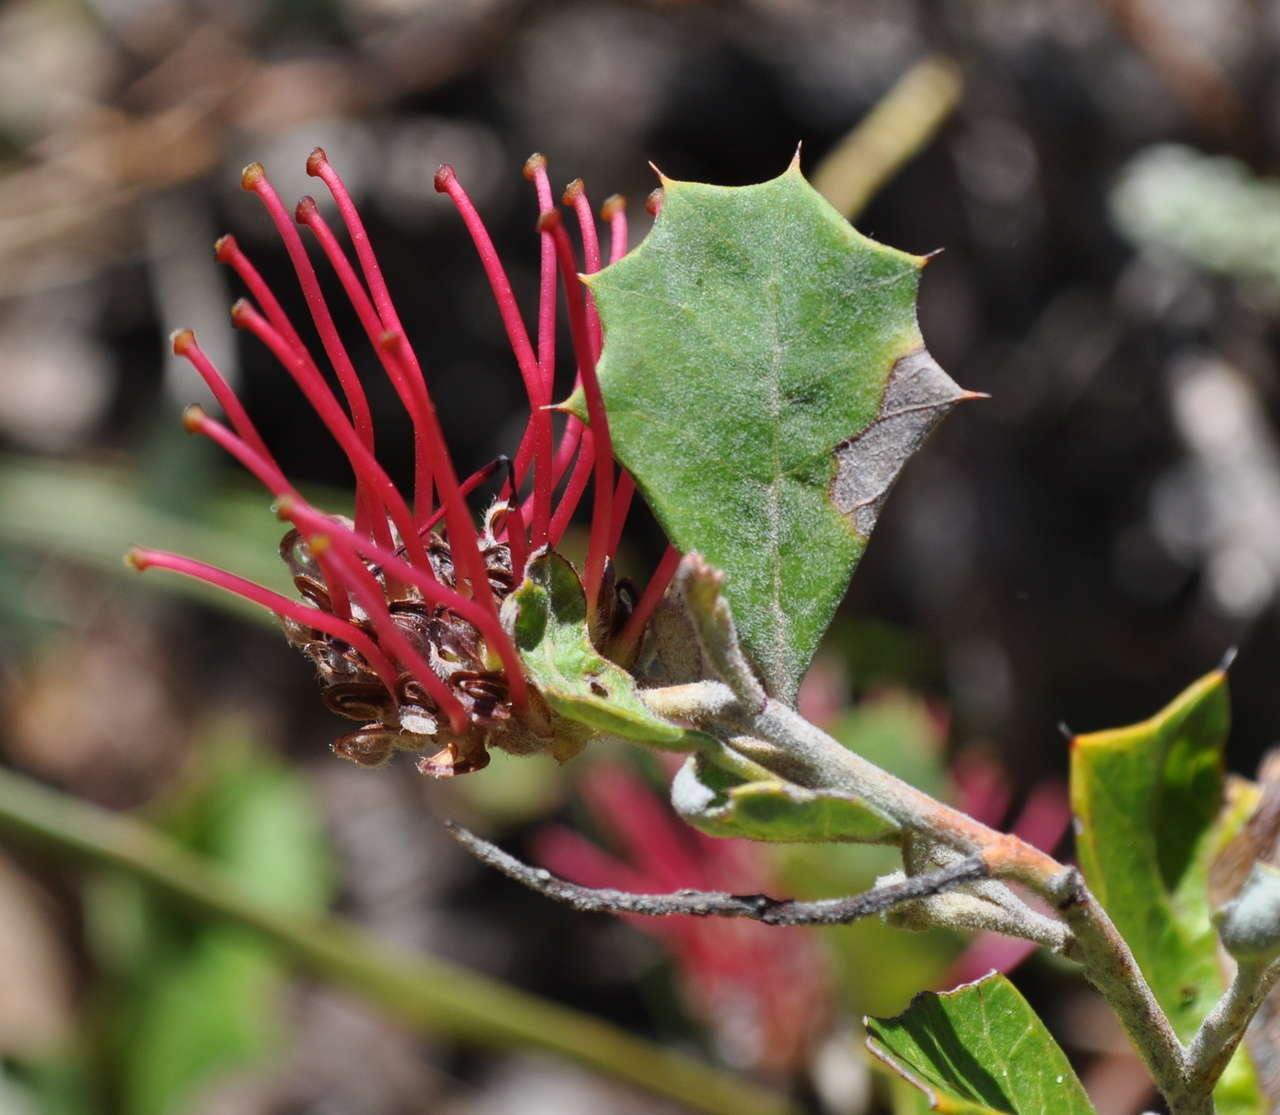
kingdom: Plantae
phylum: Tracheophyta
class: Magnoliopsida
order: Proteales
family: Proteaceae
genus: Grevillea
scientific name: Grevillea aquifolium
